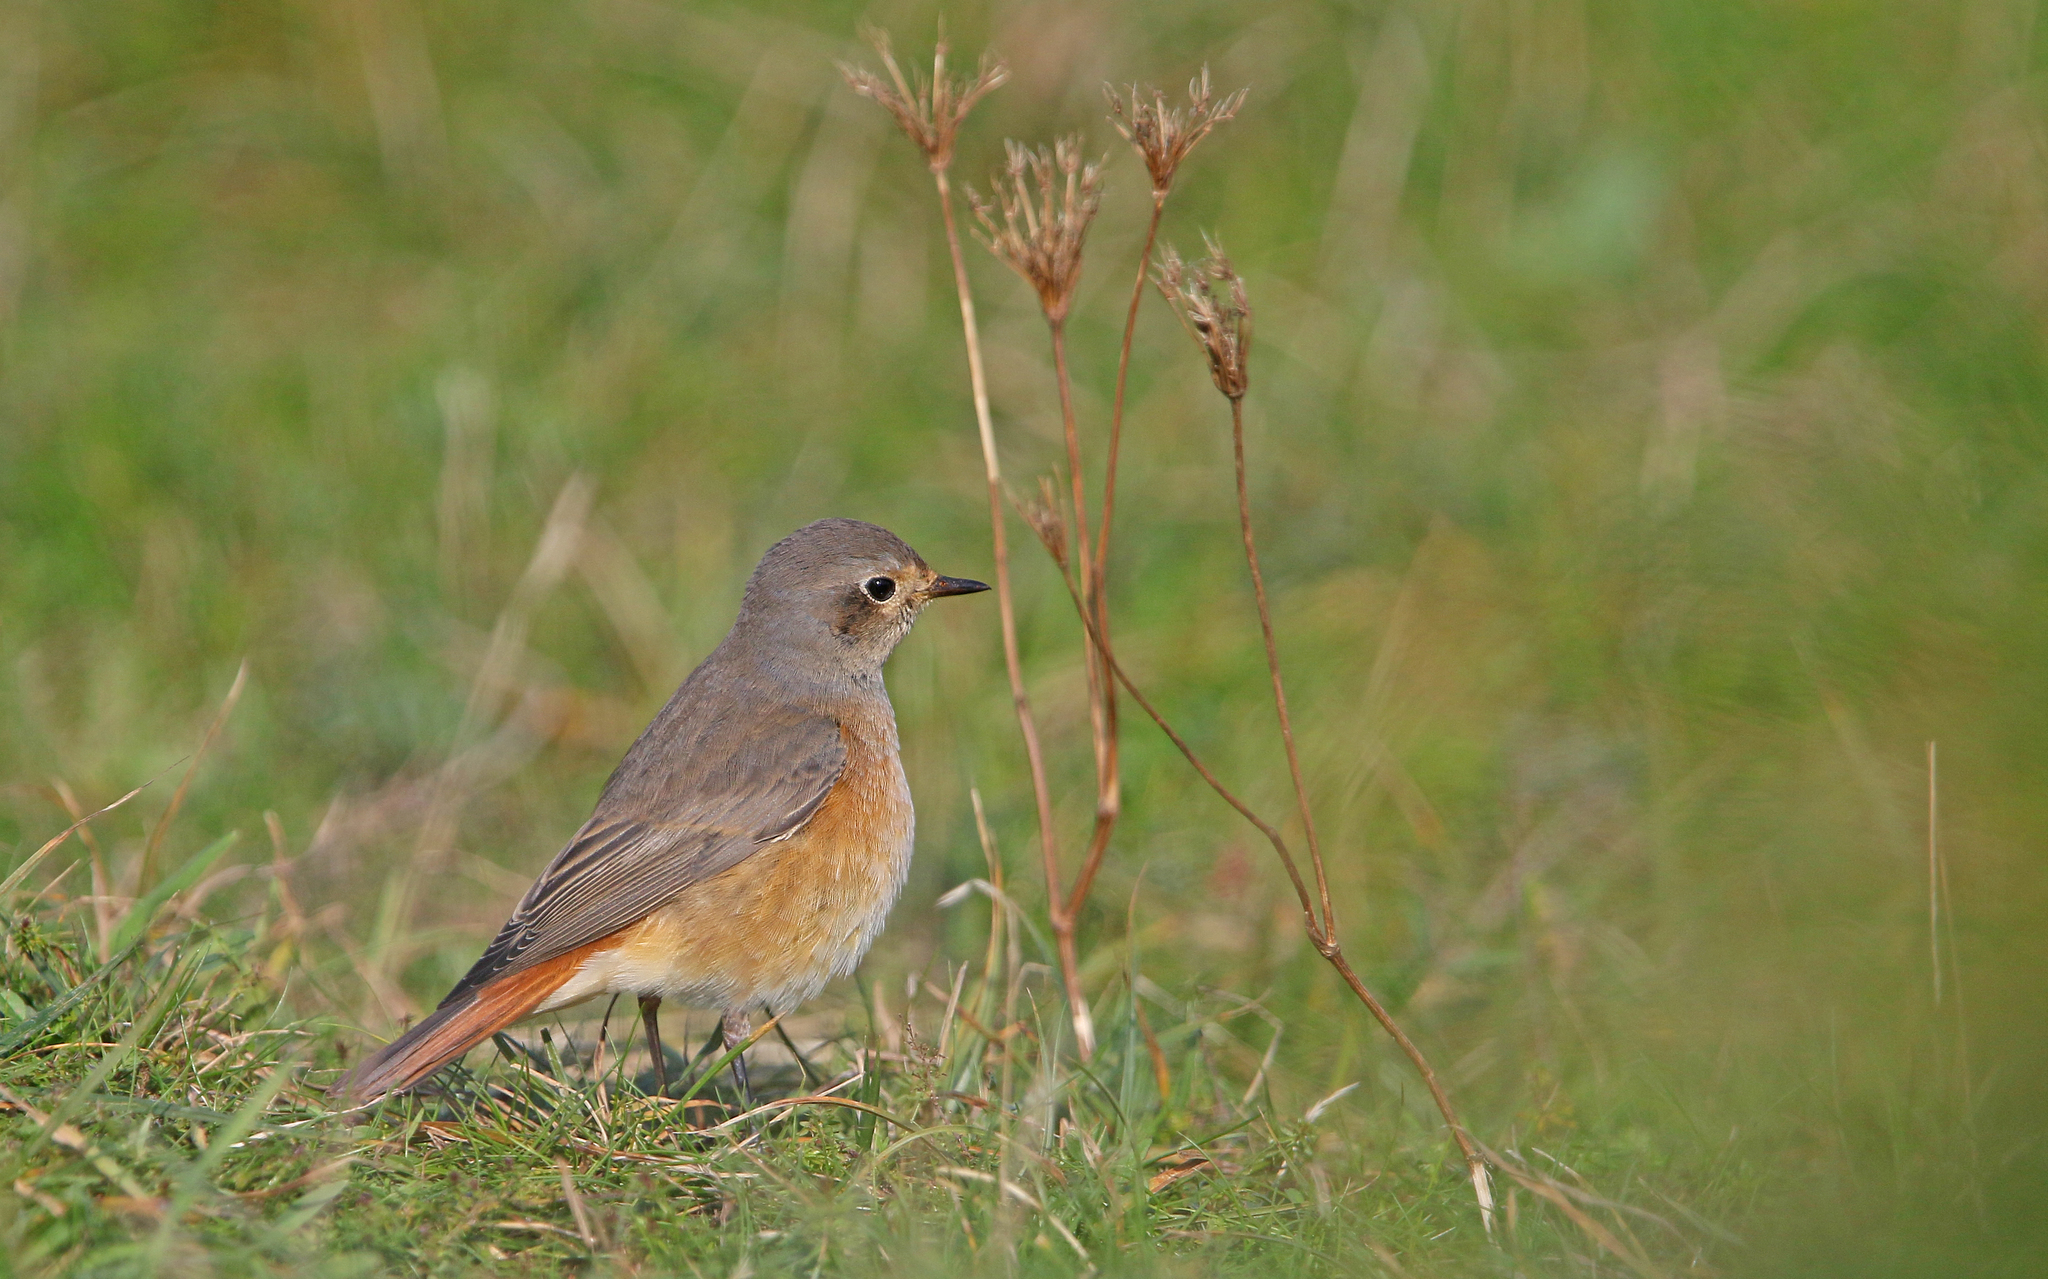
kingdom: Animalia
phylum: Chordata
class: Aves
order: Passeriformes
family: Muscicapidae
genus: Phoenicurus
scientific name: Phoenicurus phoenicurus
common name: Common redstart
